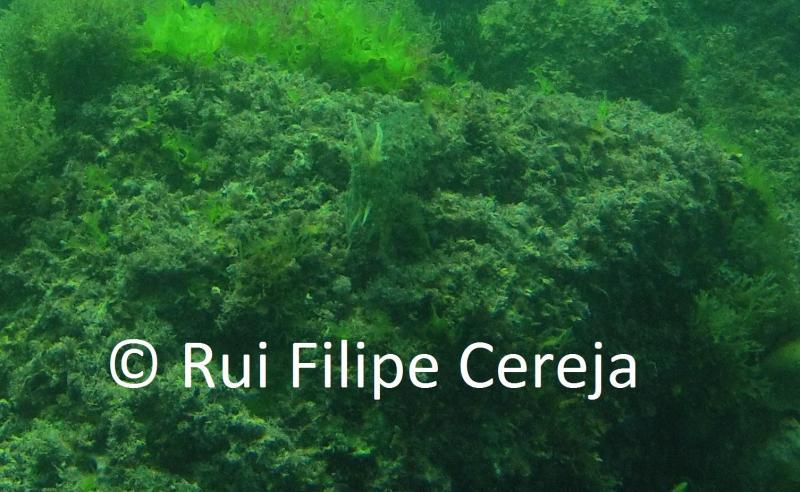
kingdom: Animalia
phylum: Mollusca
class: Cephalopoda
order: Sepiida
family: Sepiidae
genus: Sepia
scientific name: Sepia officinalis
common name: Common cuttlefish
